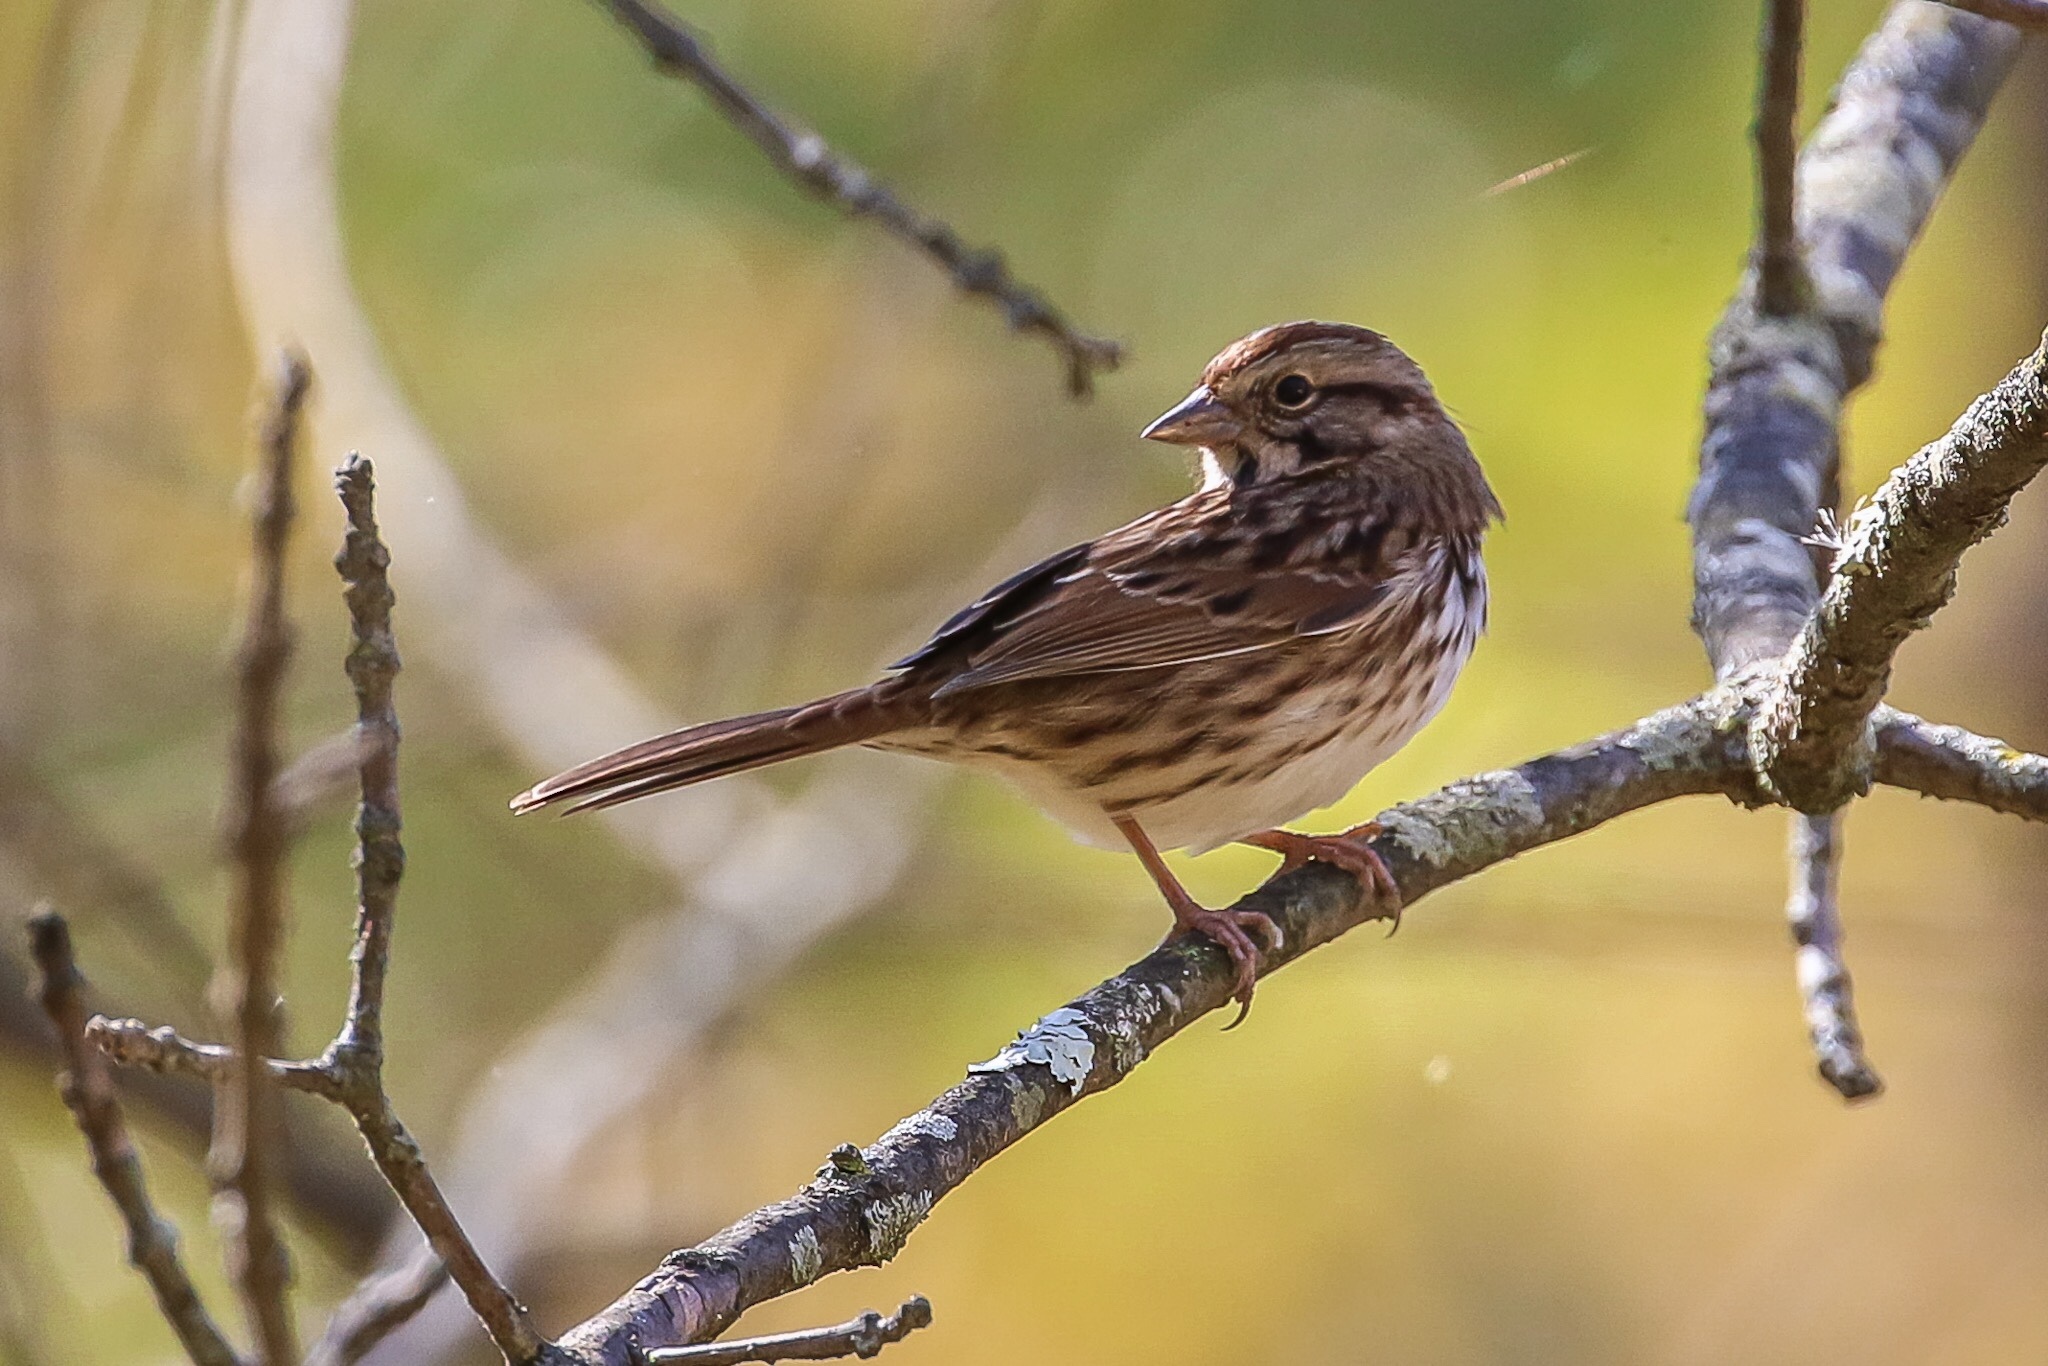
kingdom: Animalia
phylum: Chordata
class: Aves
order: Passeriformes
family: Passerellidae
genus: Melospiza
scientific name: Melospiza melodia
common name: Song sparrow
